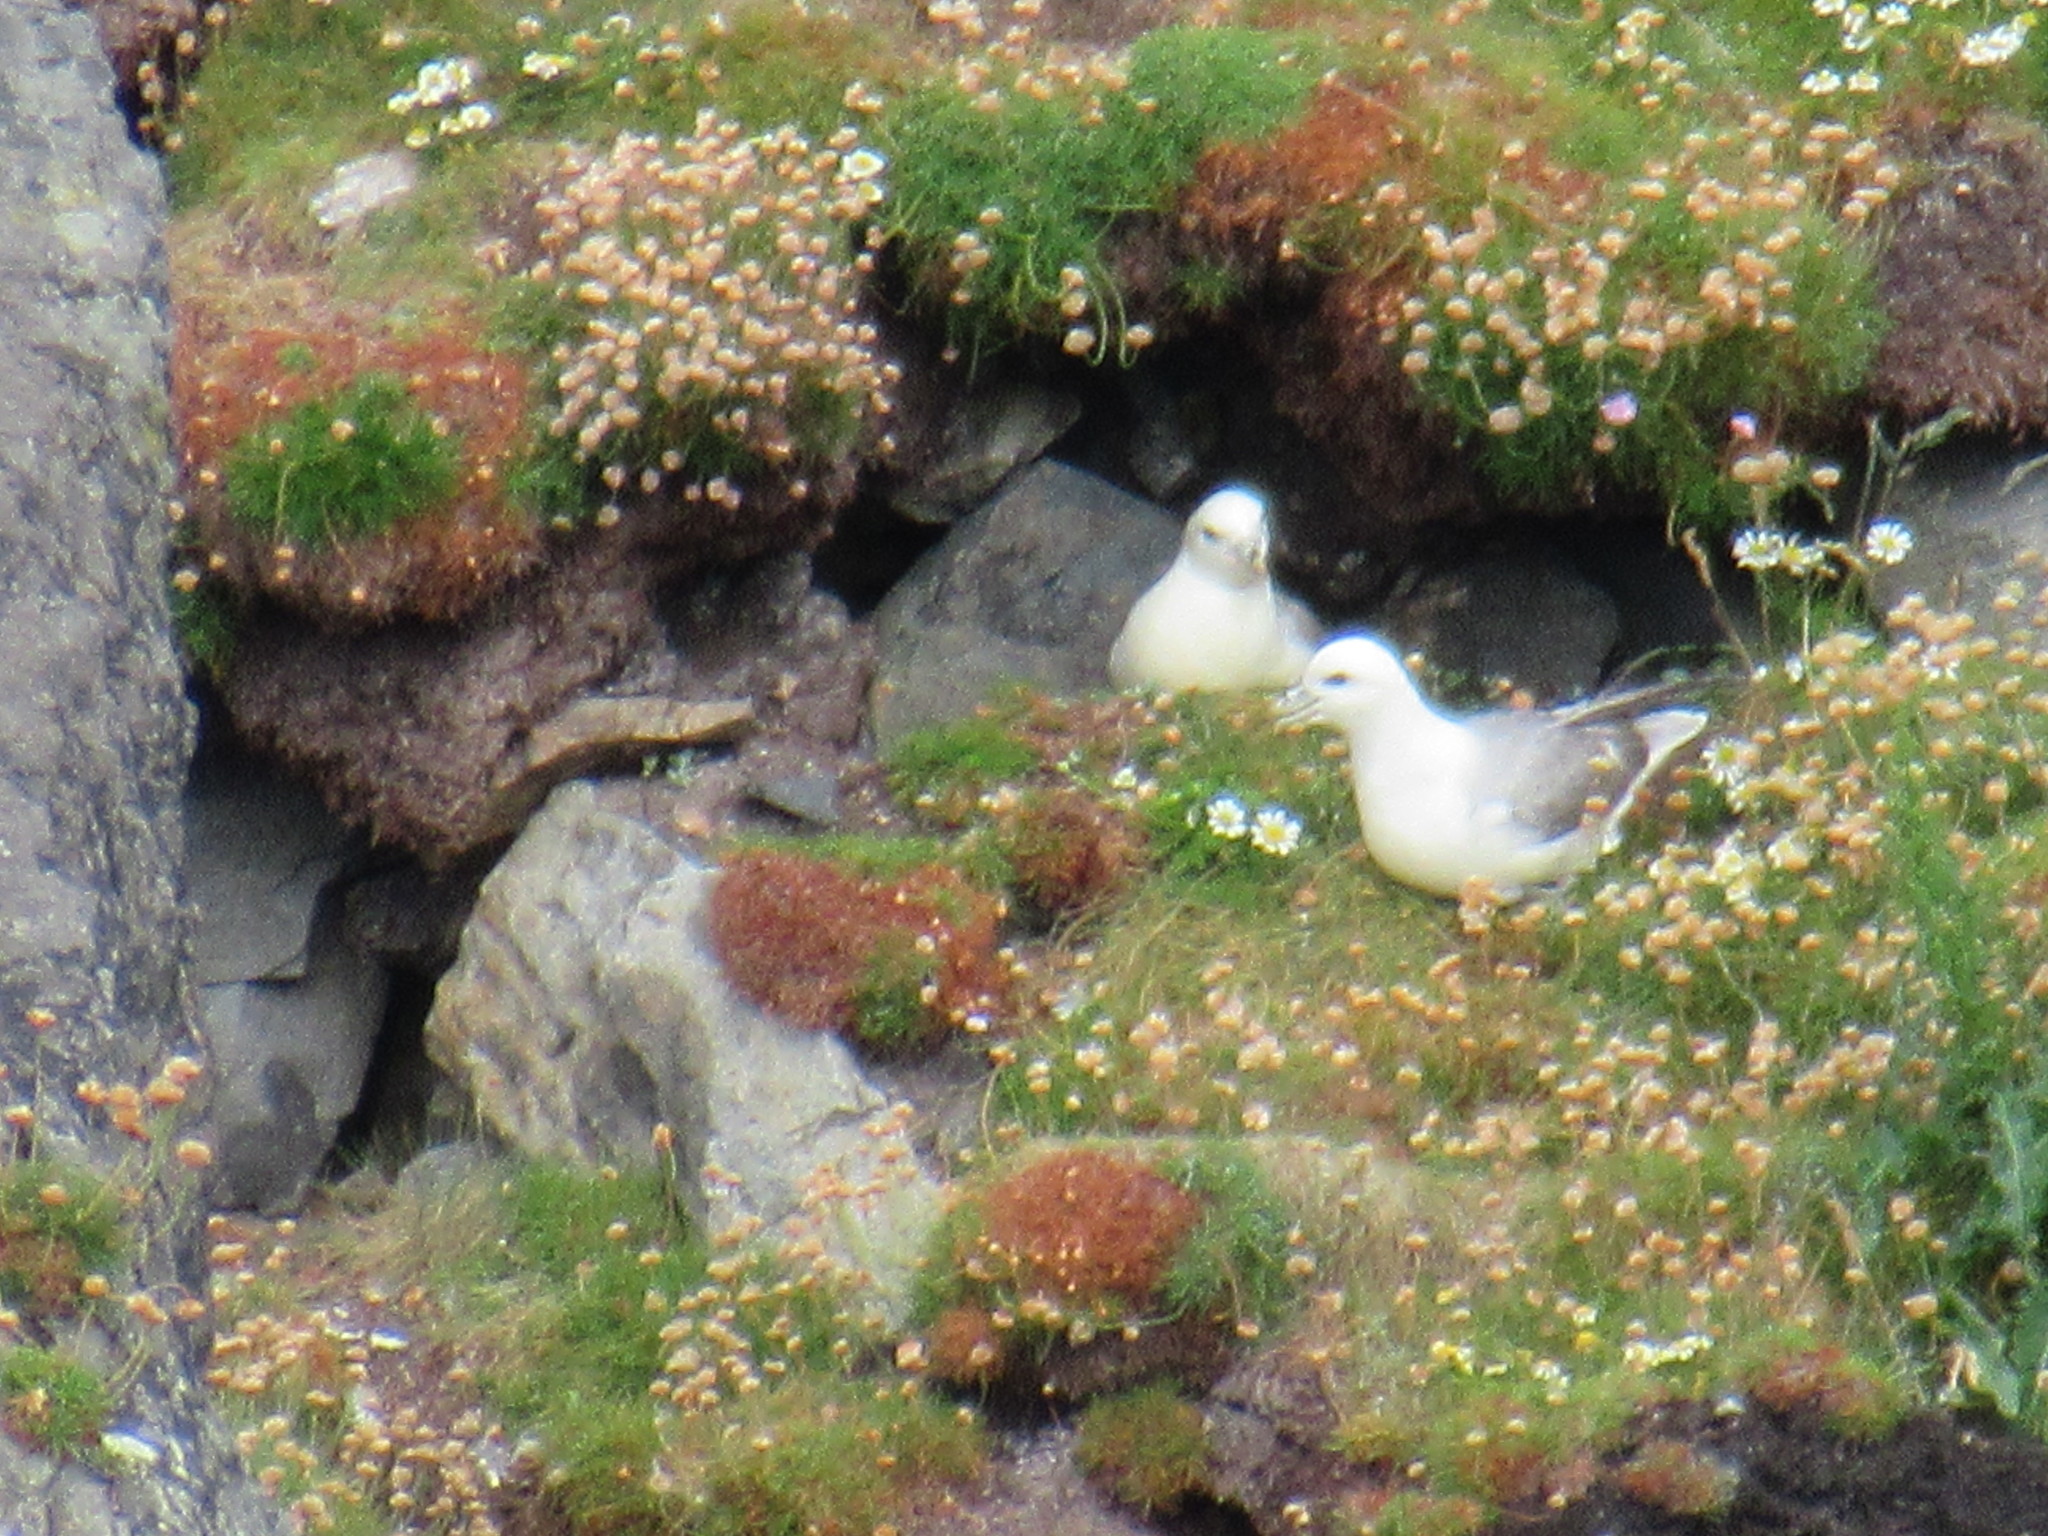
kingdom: Animalia
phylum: Chordata
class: Aves
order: Procellariiformes
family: Procellariidae
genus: Fulmarus
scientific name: Fulmarus glacialis
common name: Northern fulmar
